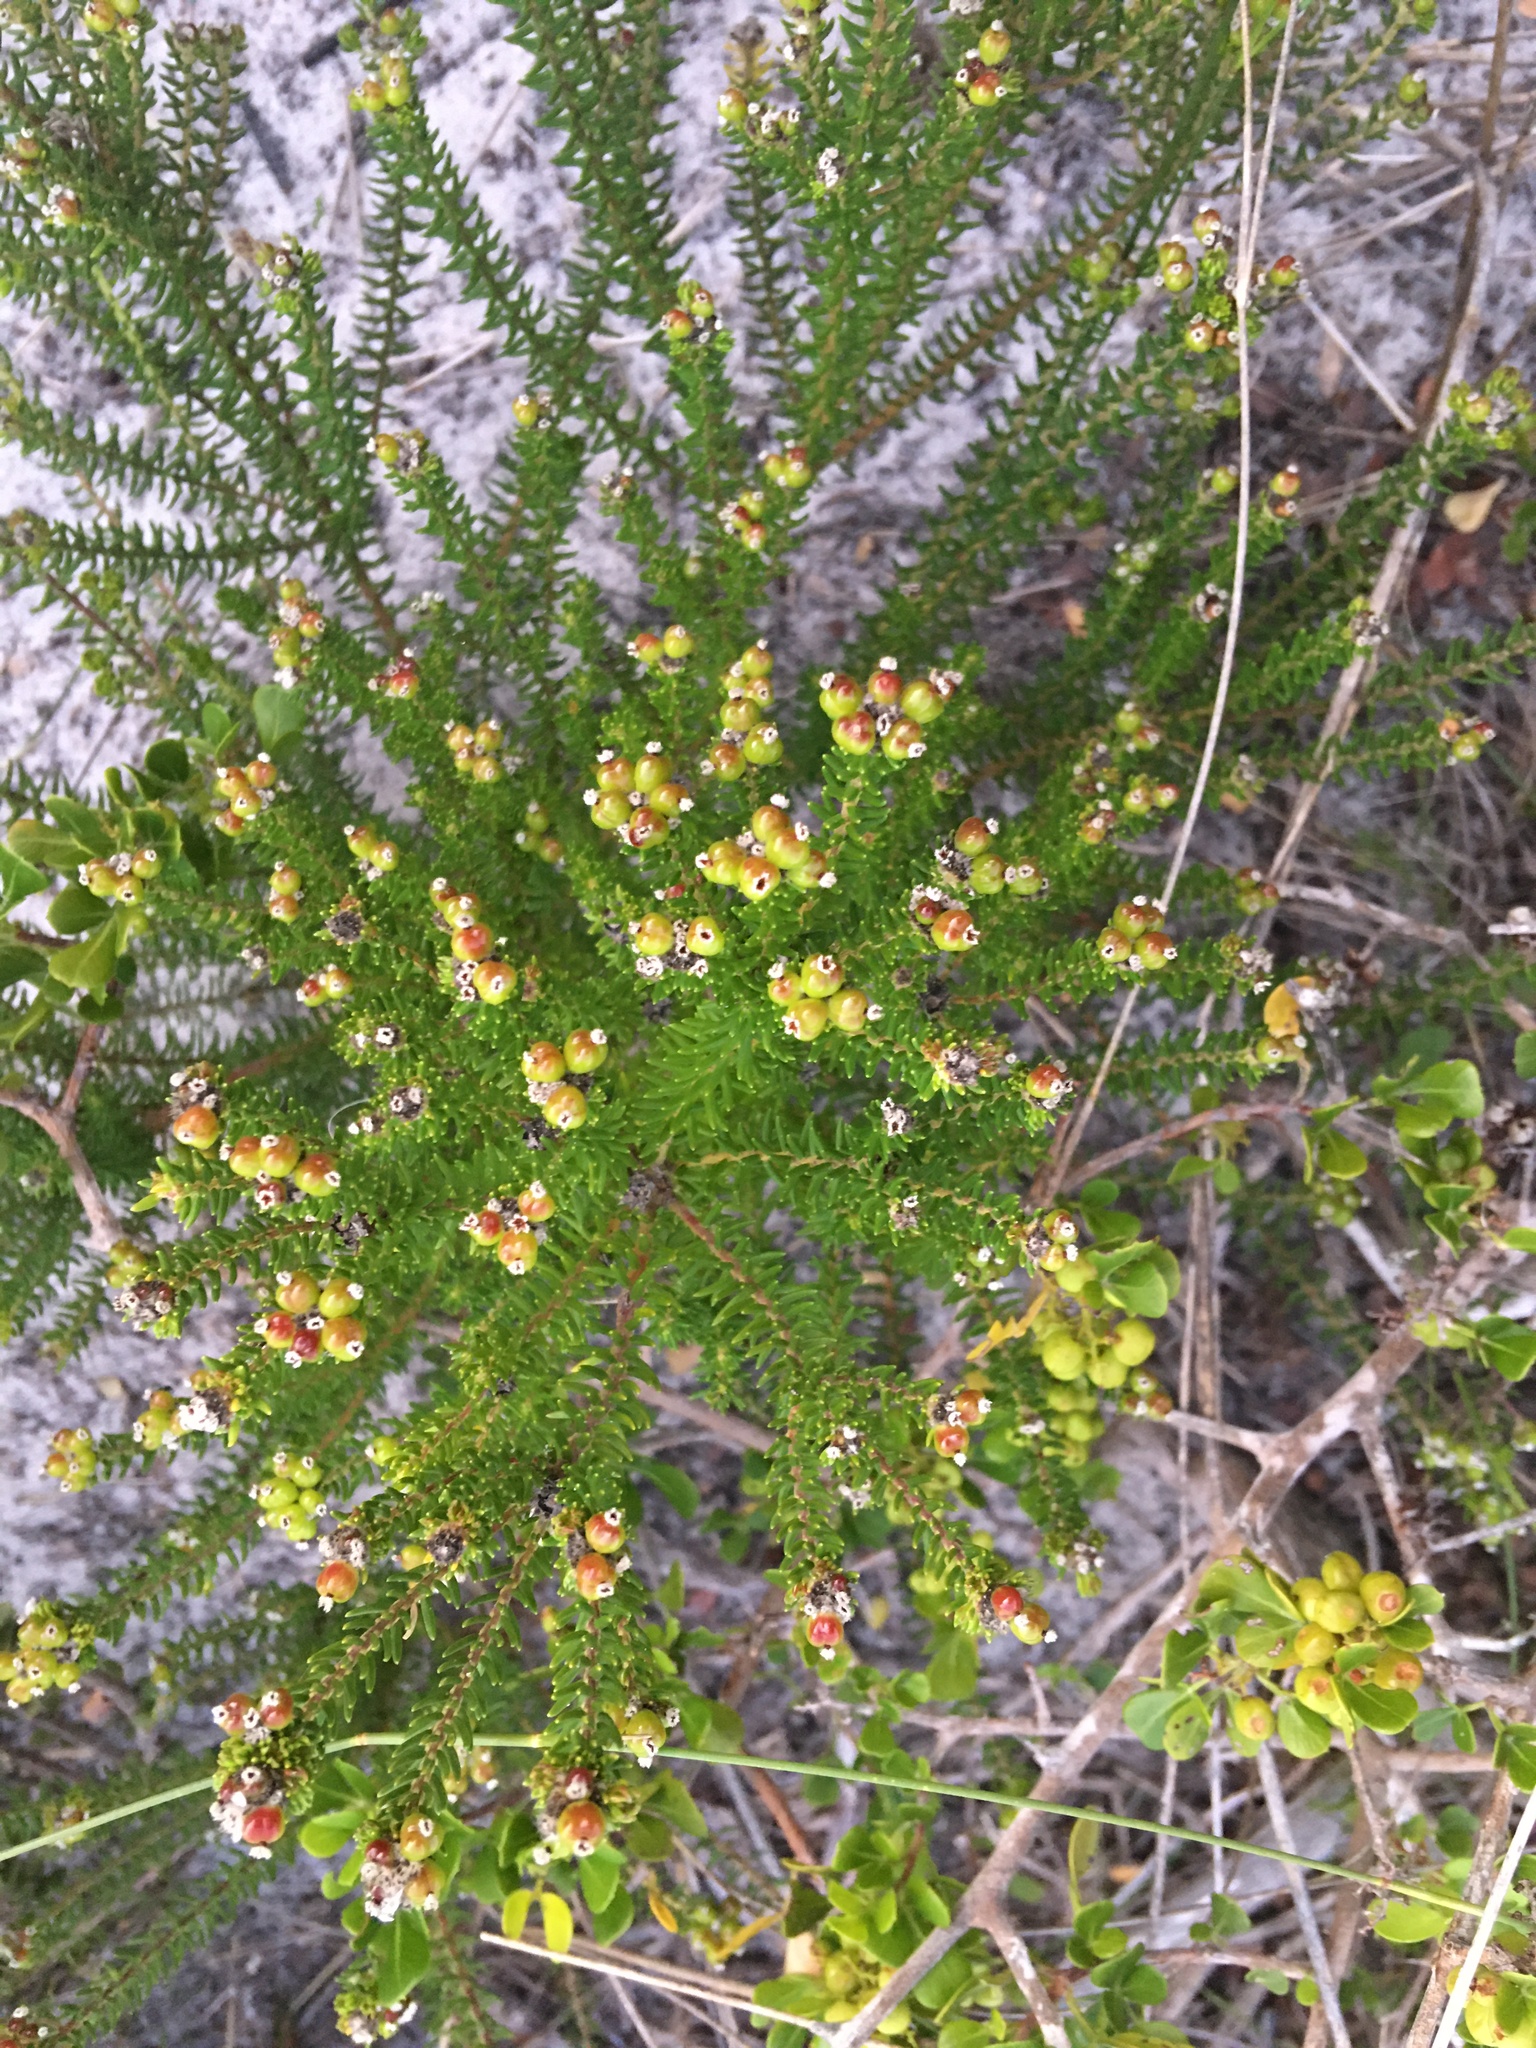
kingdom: Plantae
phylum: Tracheophyta
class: Magnoliopsida
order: Rosales
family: Rhamnaceae
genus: Phylica
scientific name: Phylica ericoides
